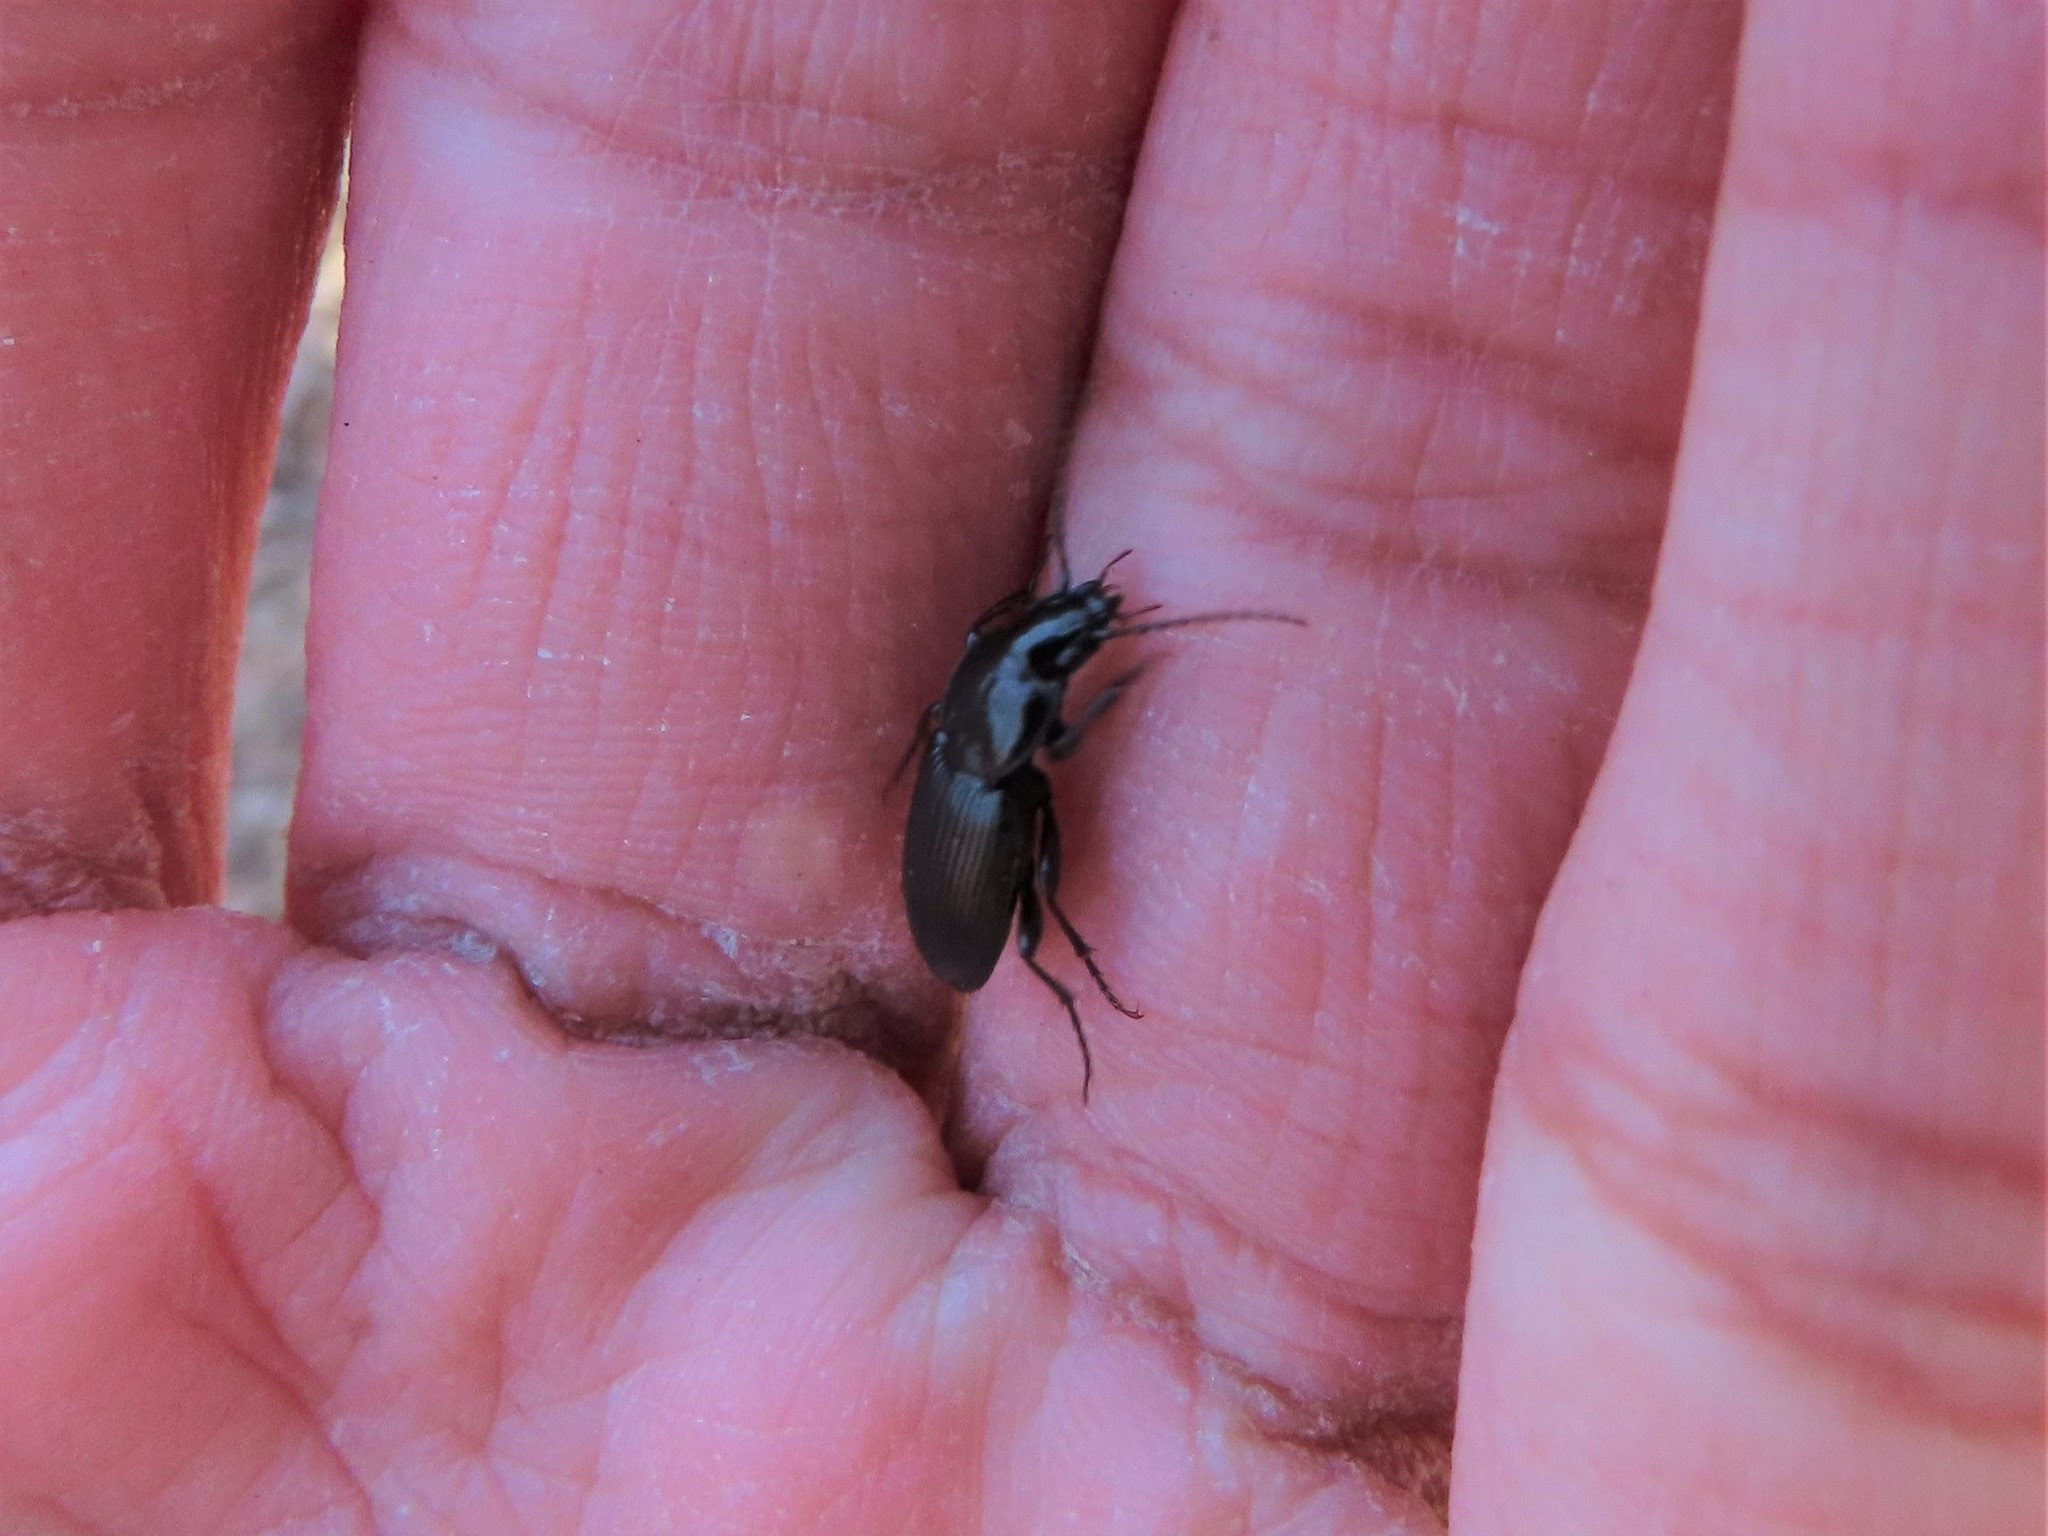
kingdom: Animalia
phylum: Arthropoda
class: Insecta
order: Coleoptera
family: Carabidae
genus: Pterostichus
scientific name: Pterostichus mutus
